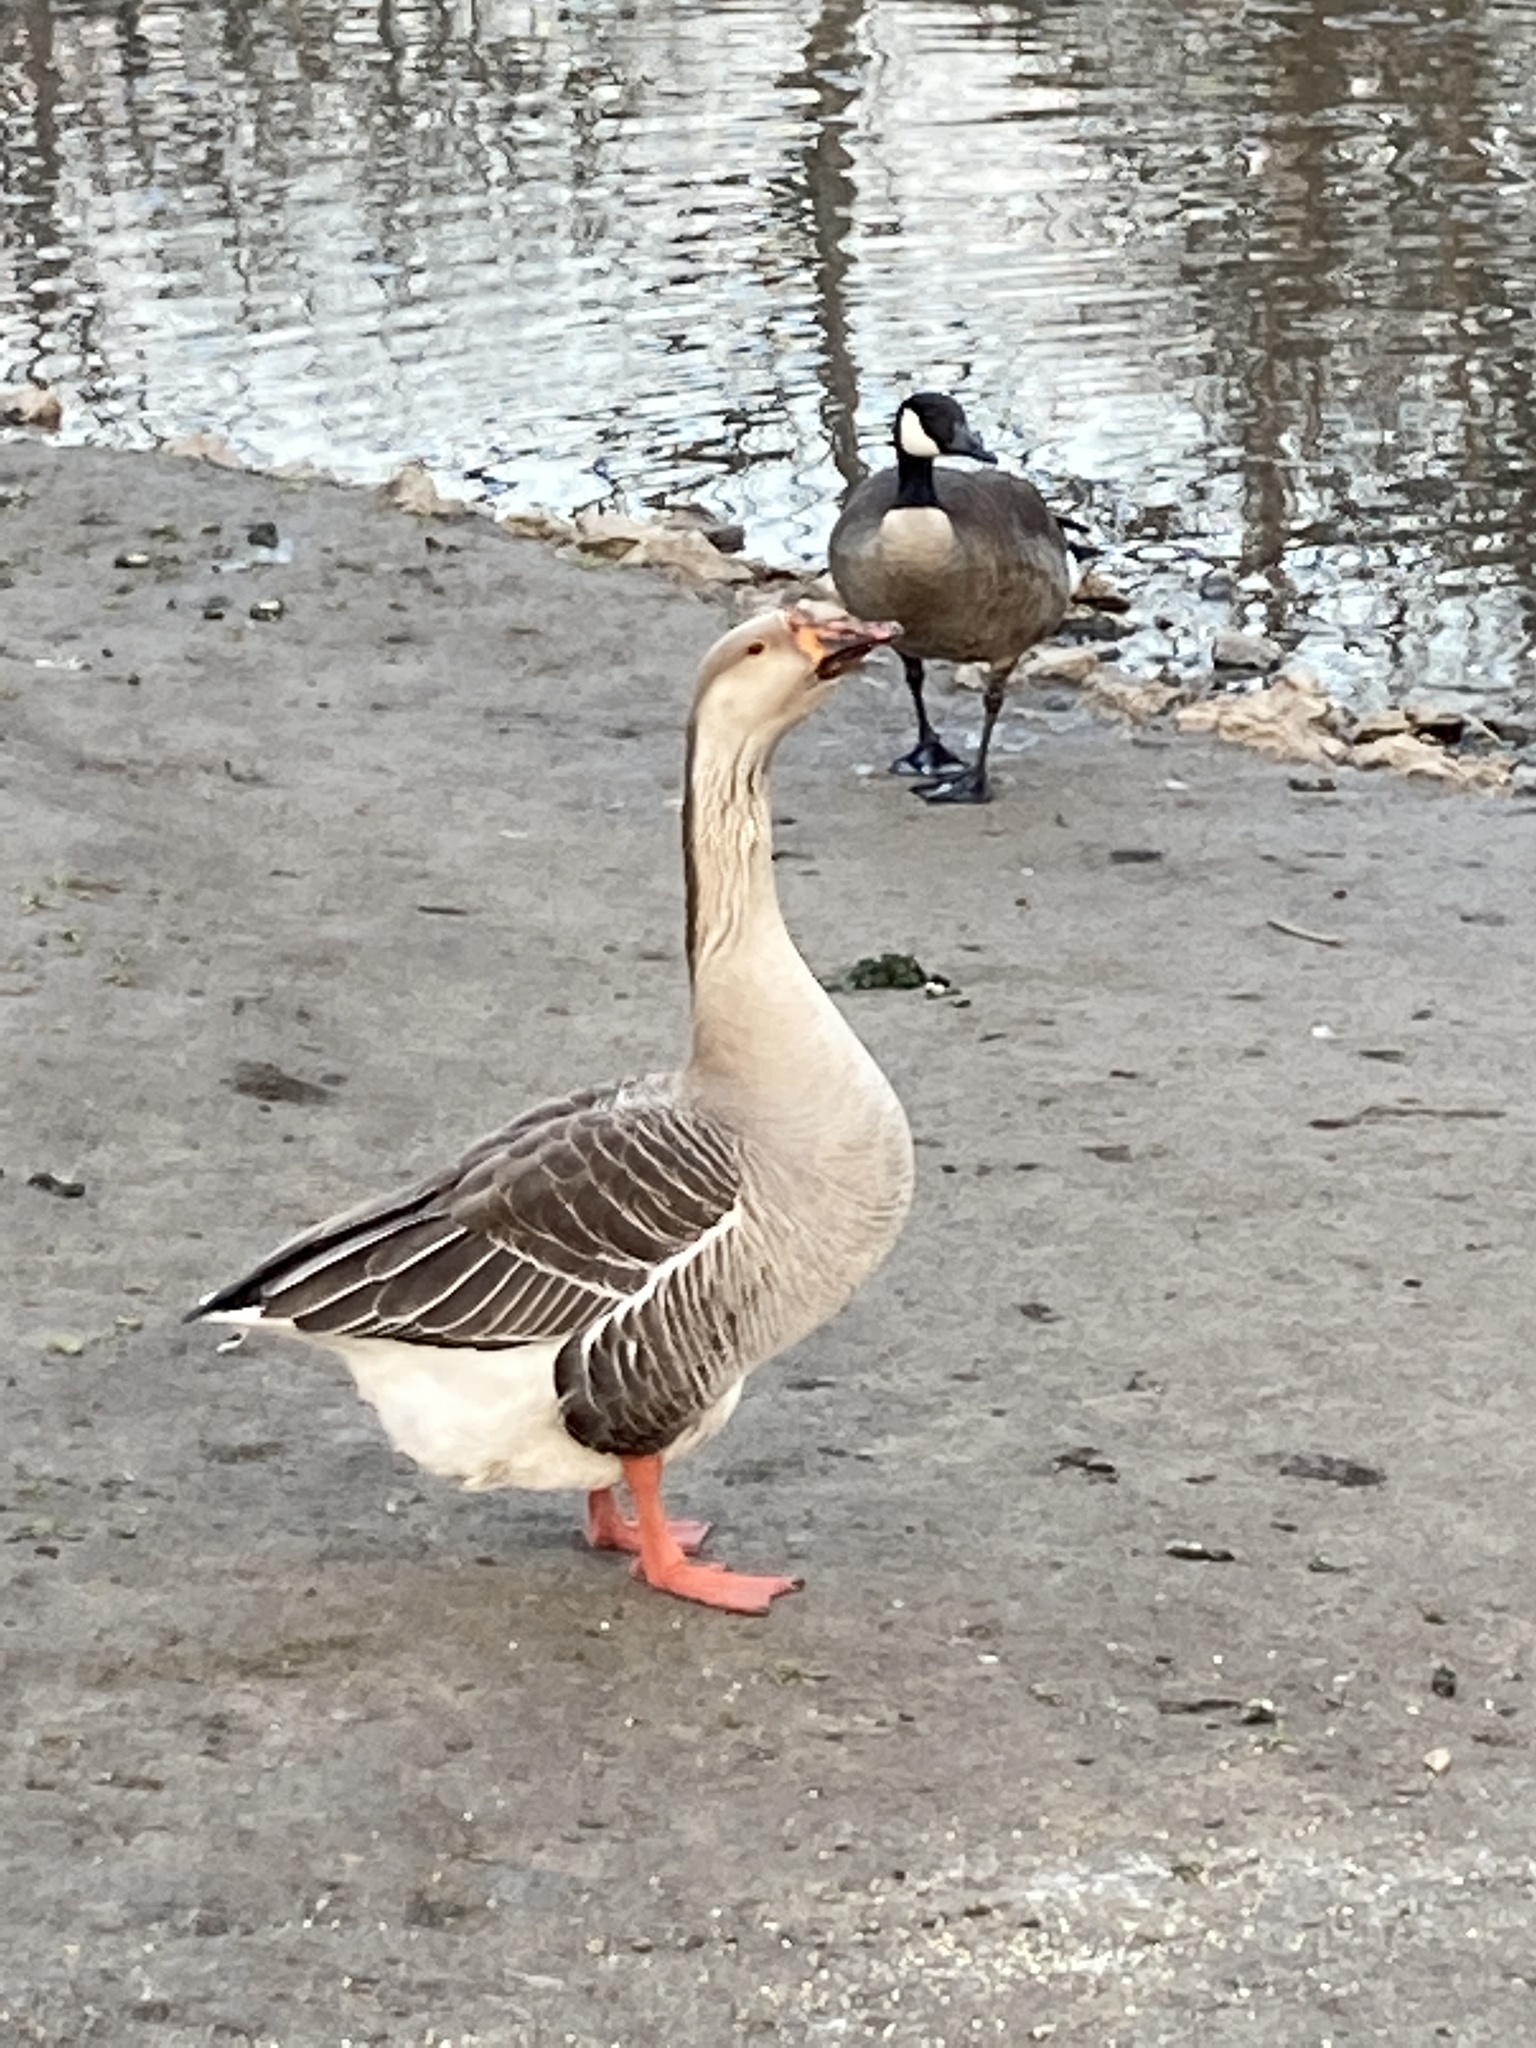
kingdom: Animalia
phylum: Chordata
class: Aves
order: Anseriformes
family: Anatidae
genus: Anser
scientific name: Anser
